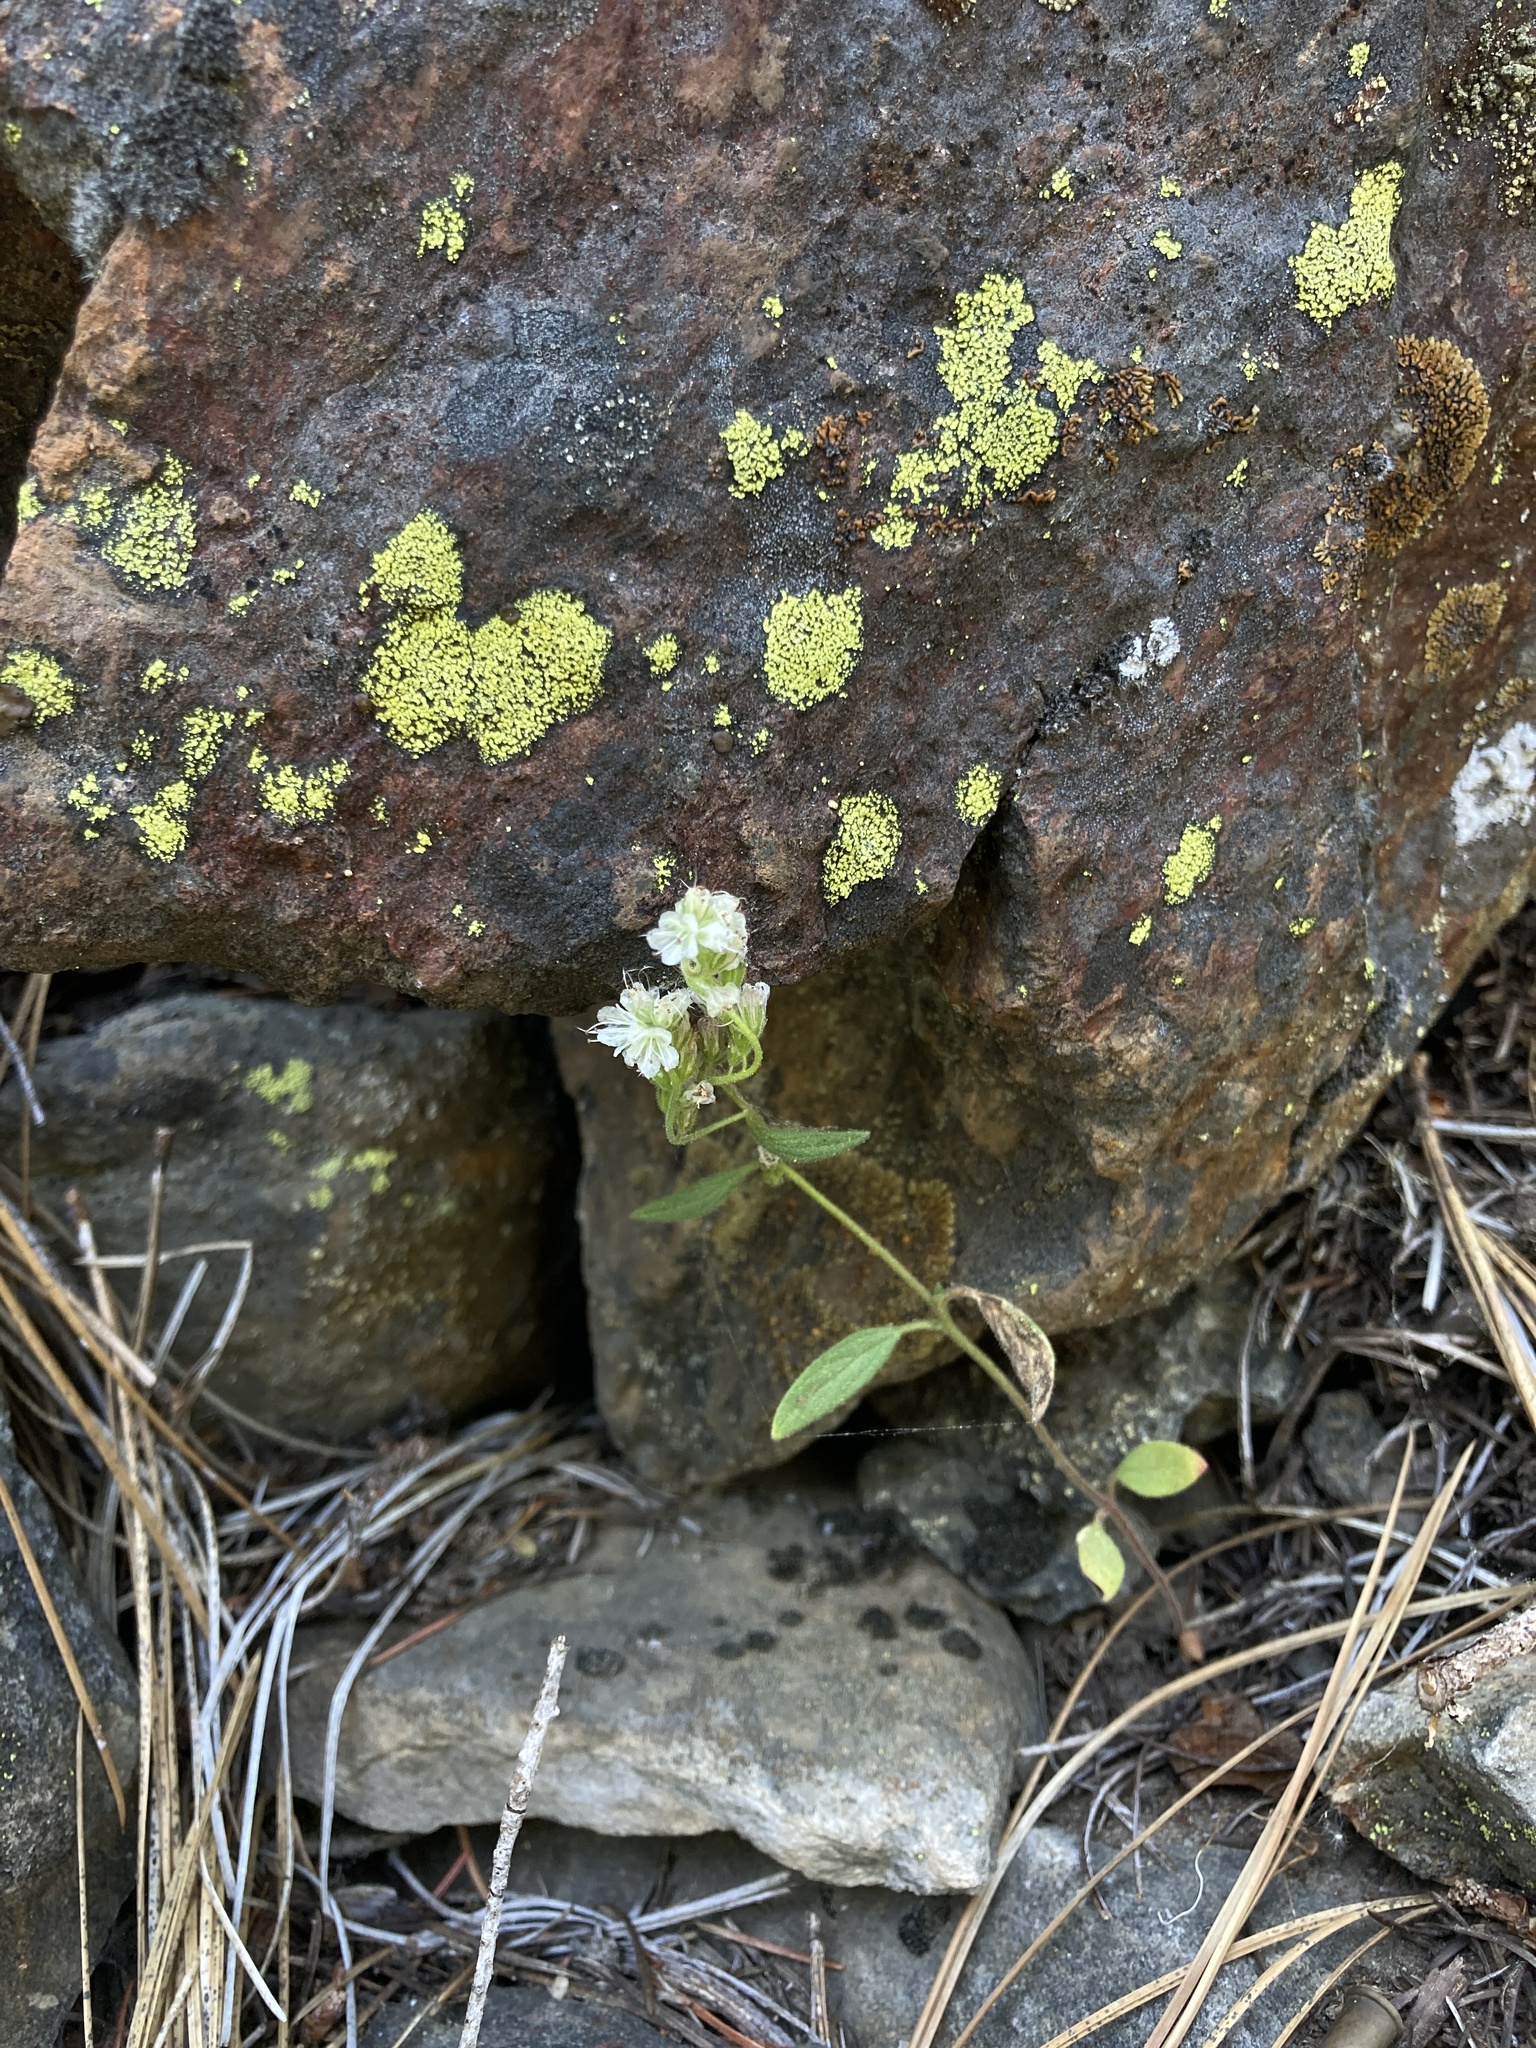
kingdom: Plantae
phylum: Tracheophyta
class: Magnoliopsida
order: Boraginales
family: Hydrophyllaceae
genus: Phacelia
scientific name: Phacelia stebbinsii
